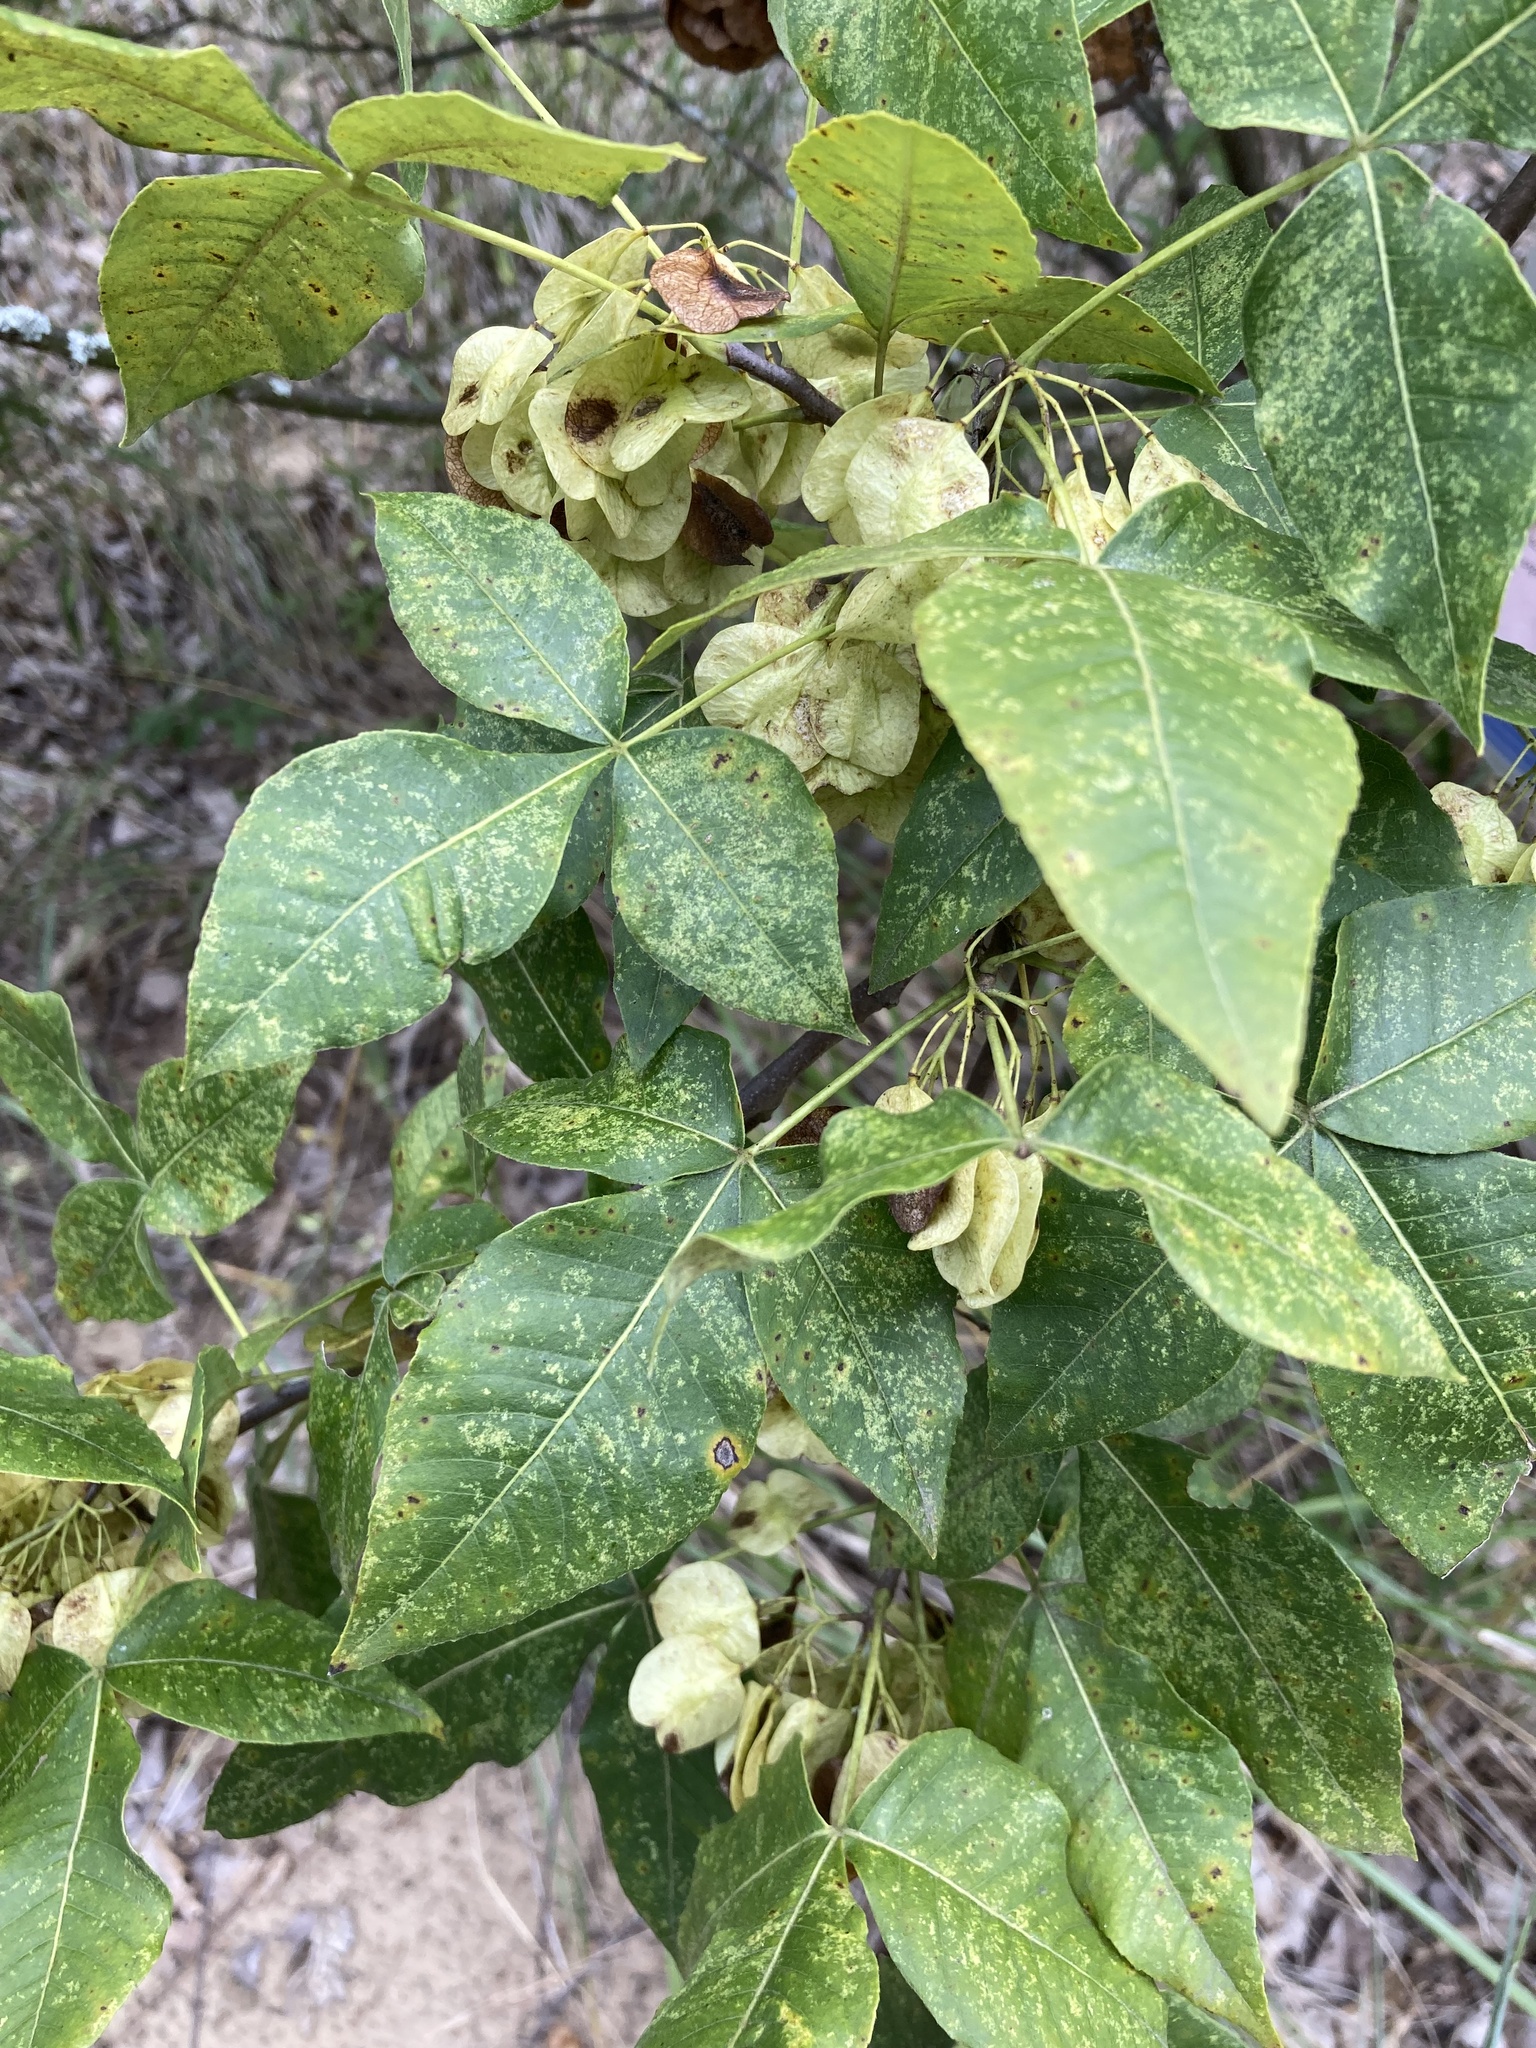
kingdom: Plantae
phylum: Tracheophyta
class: Magnoliopsida
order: Sapindales
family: Rutaceae
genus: Ptelea
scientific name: Ptelea trifoliata
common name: Common hop-tree
